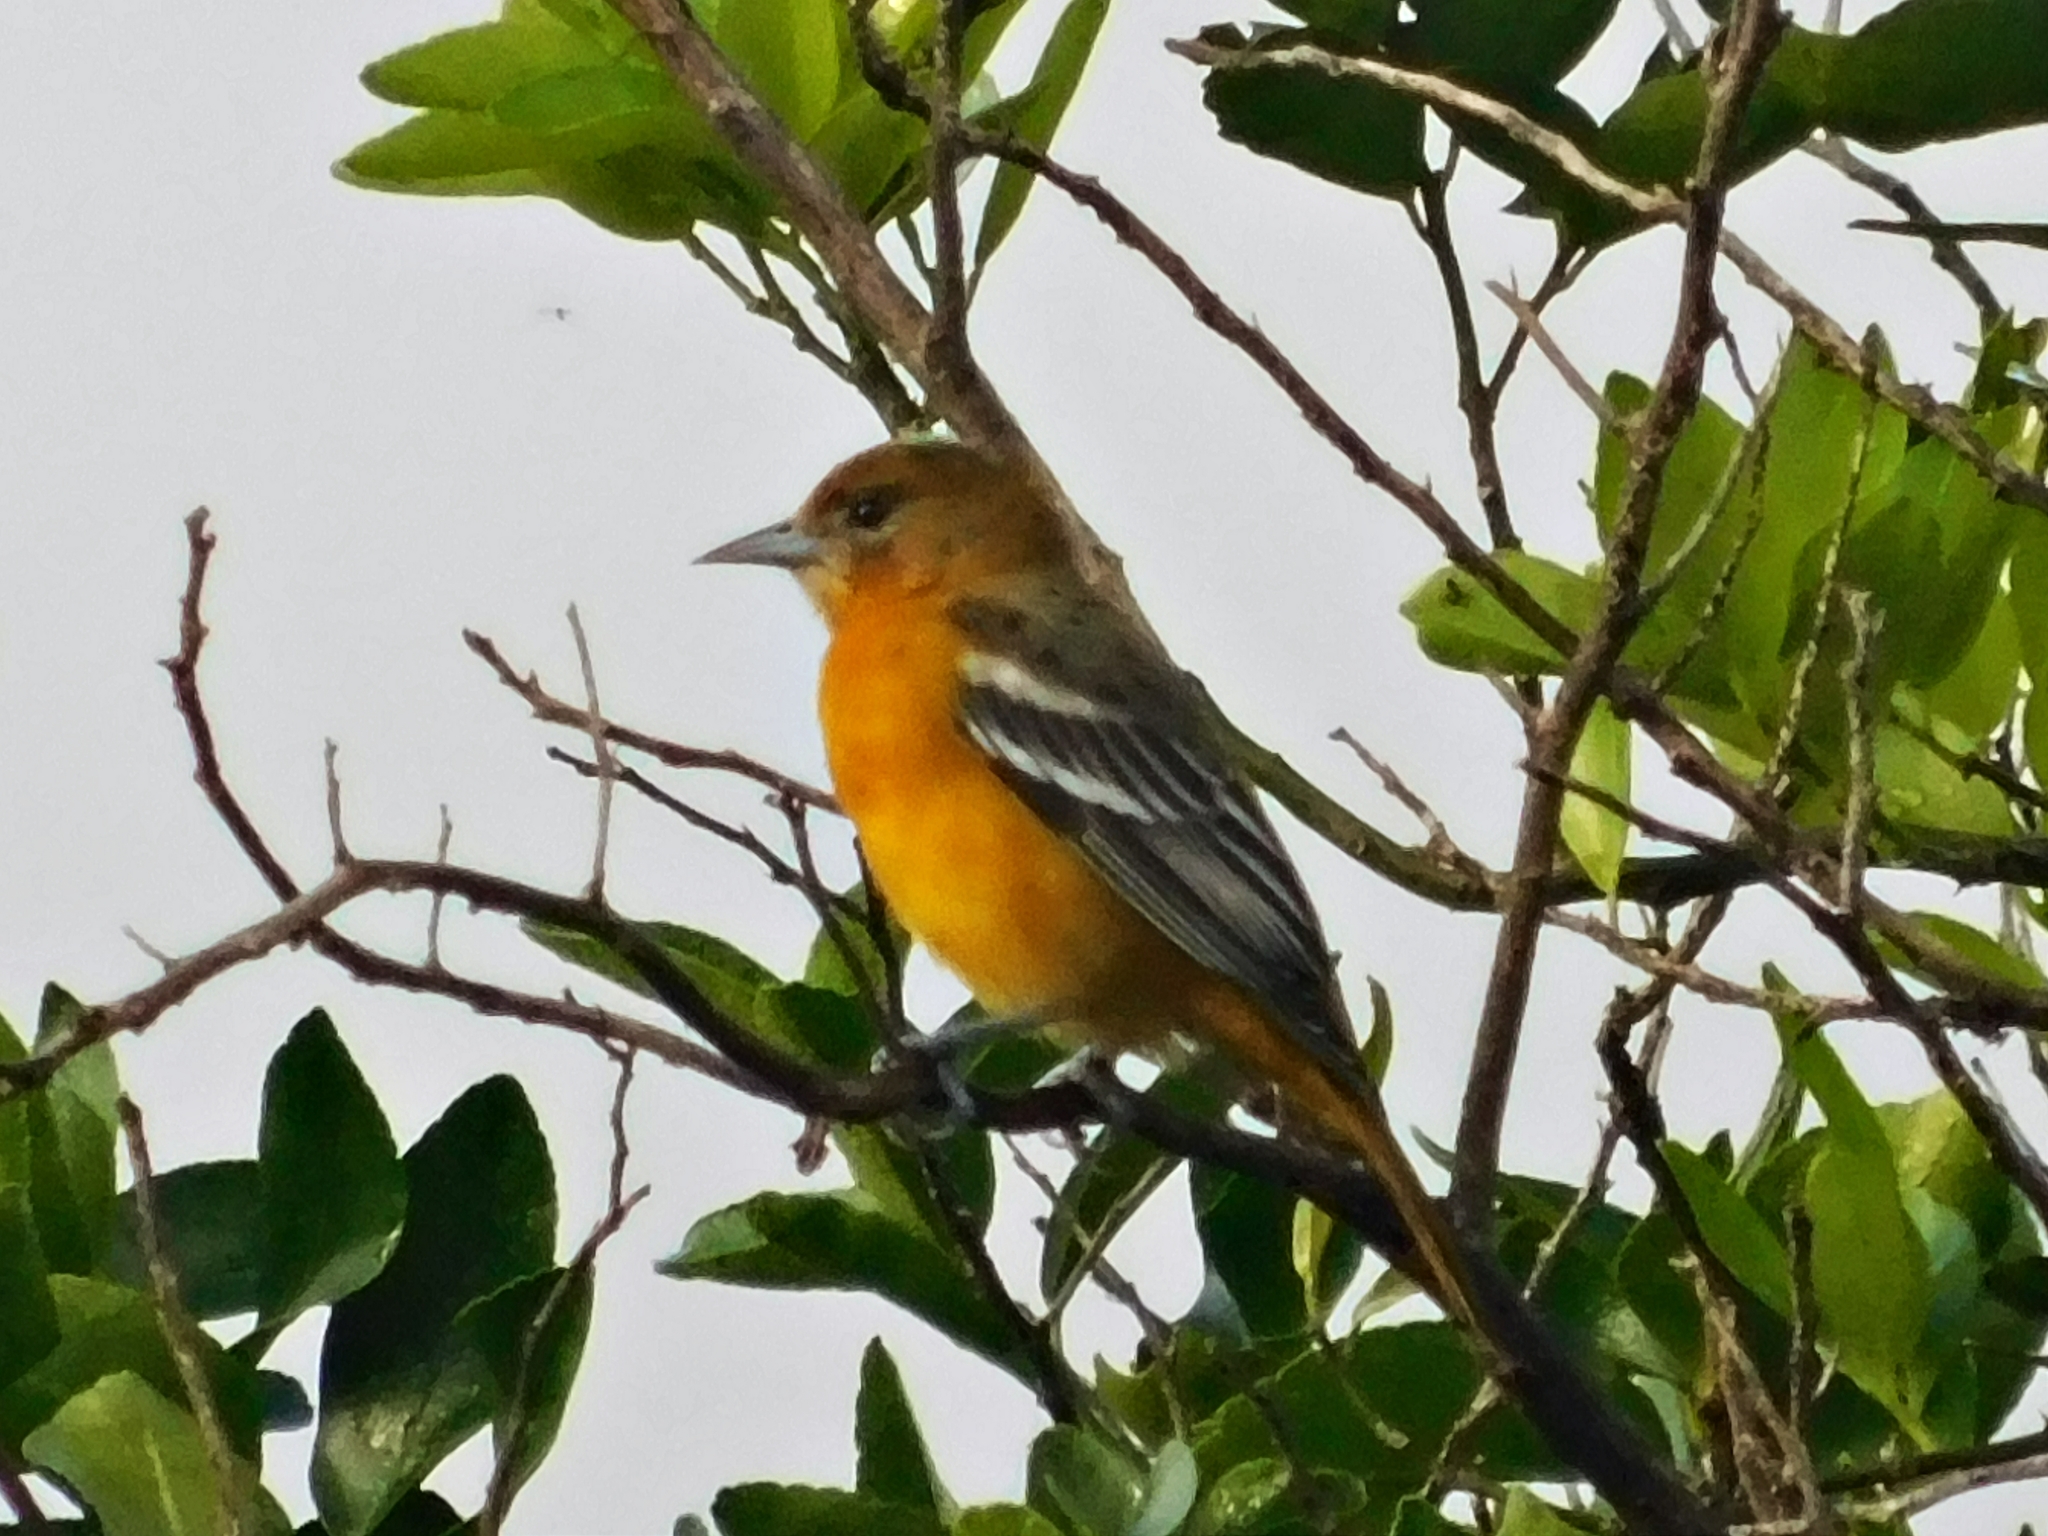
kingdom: Animalia
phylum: Chordata
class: Aves
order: Passeriformes
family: Icteridae
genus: Icterus
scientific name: Icterus galbula
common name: Baltimore oriole
